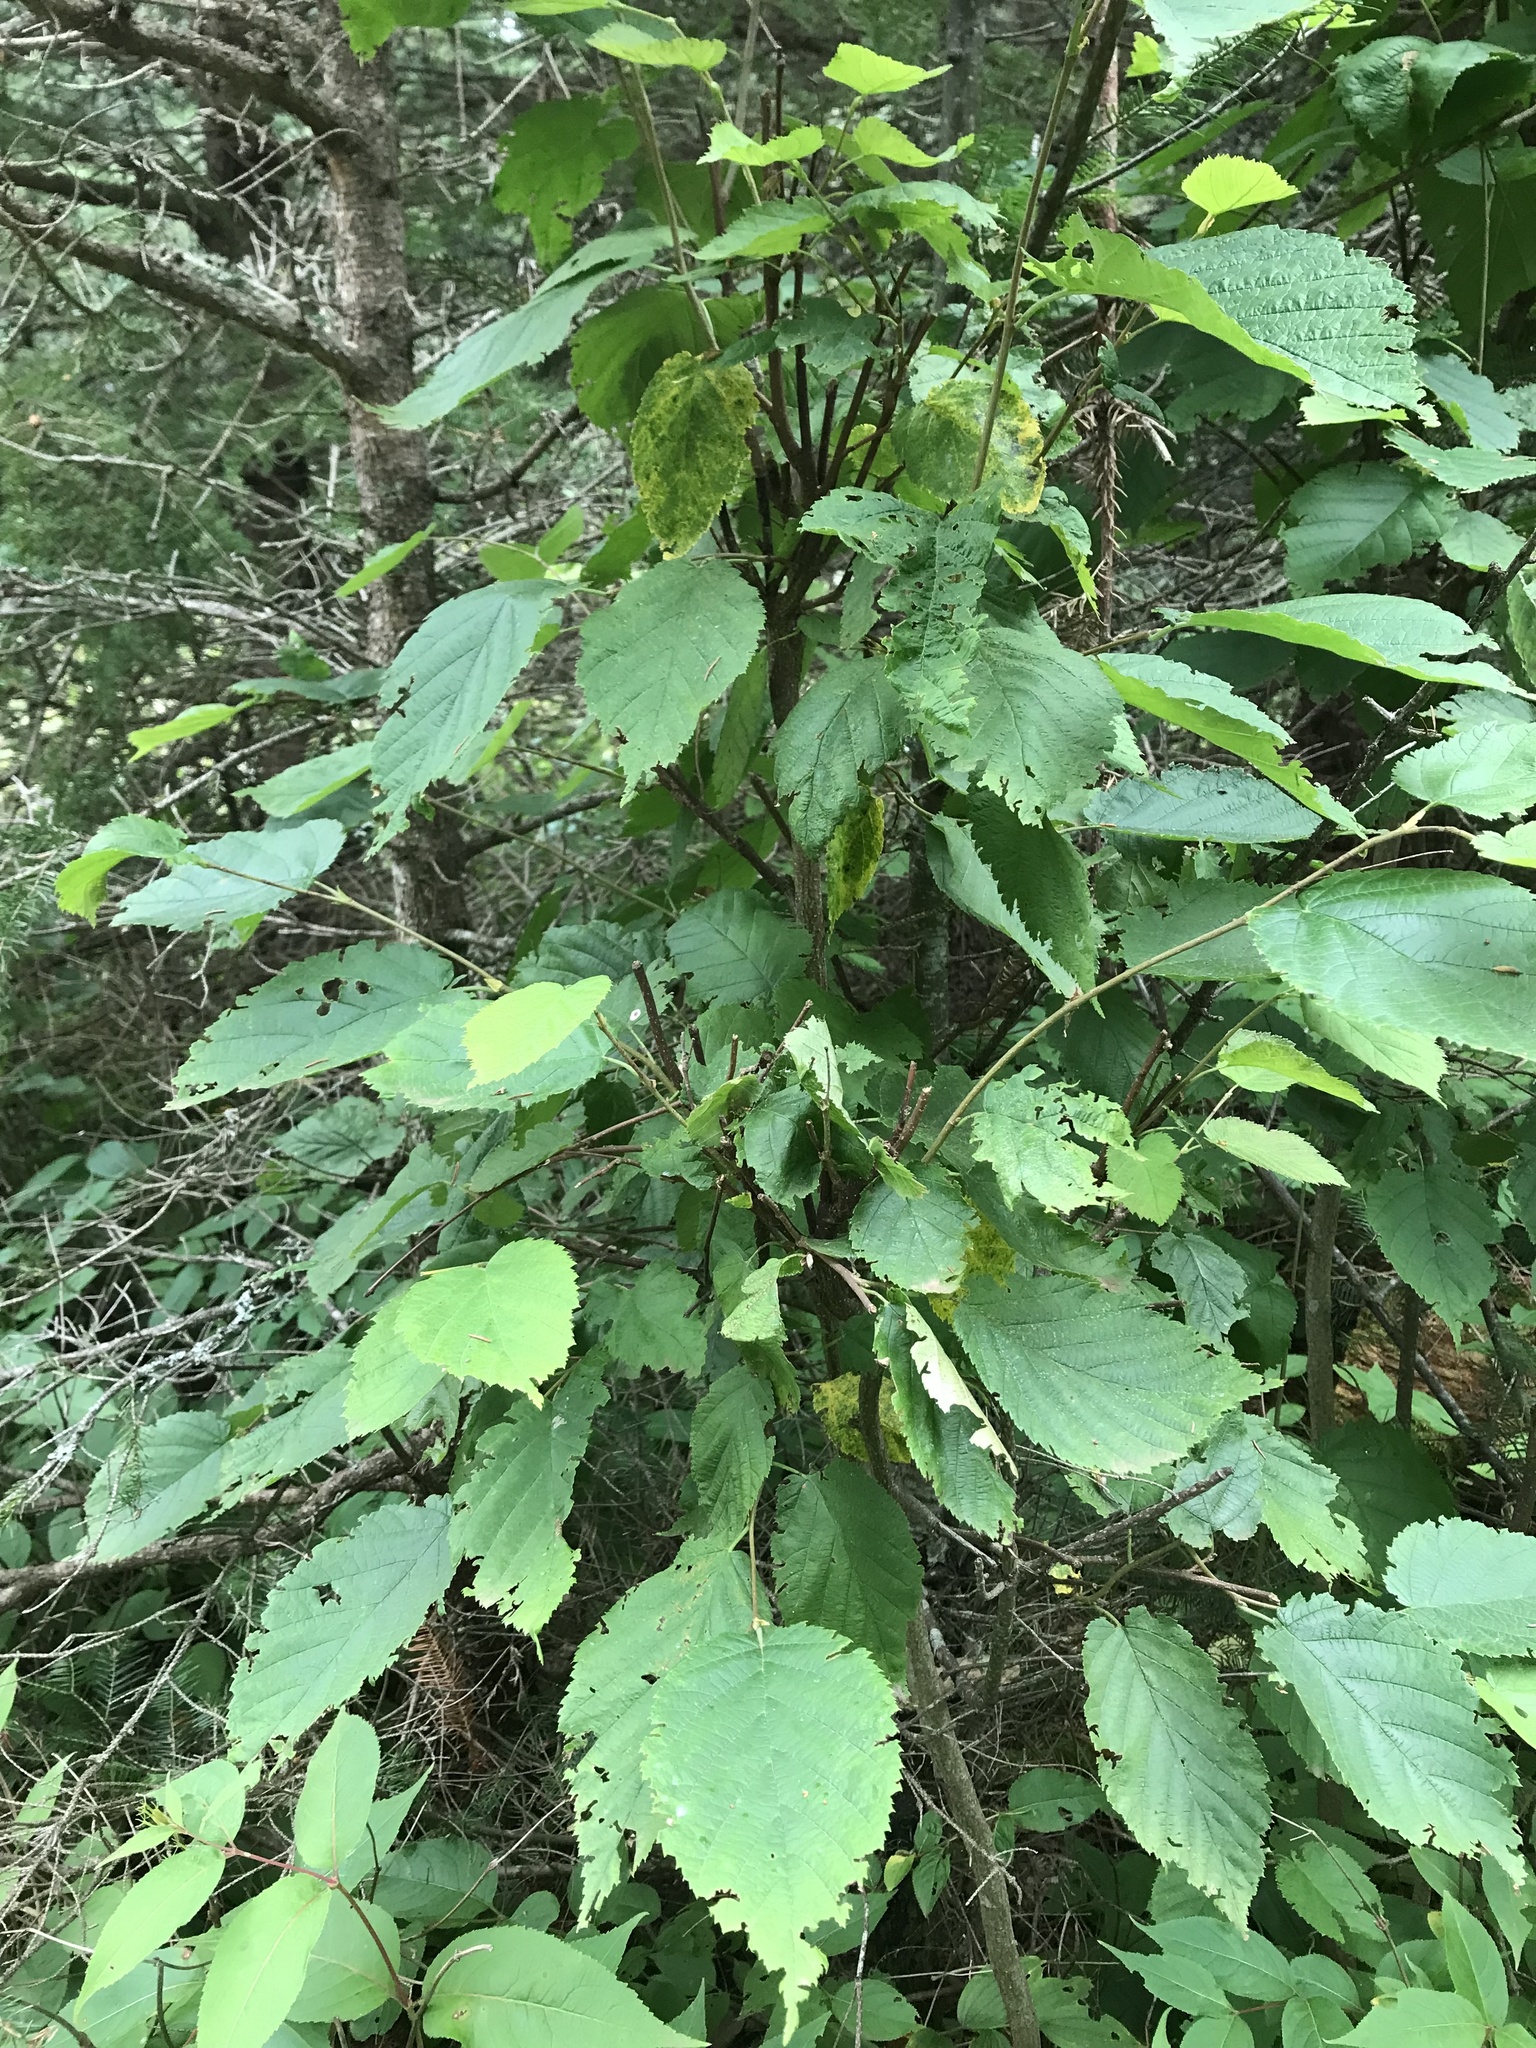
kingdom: Plantae
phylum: Tracheophyta
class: Magnoliopsida
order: Fagales
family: Betulaceae
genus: Corylus
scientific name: Corylus cornuta
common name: Beaked hazel
